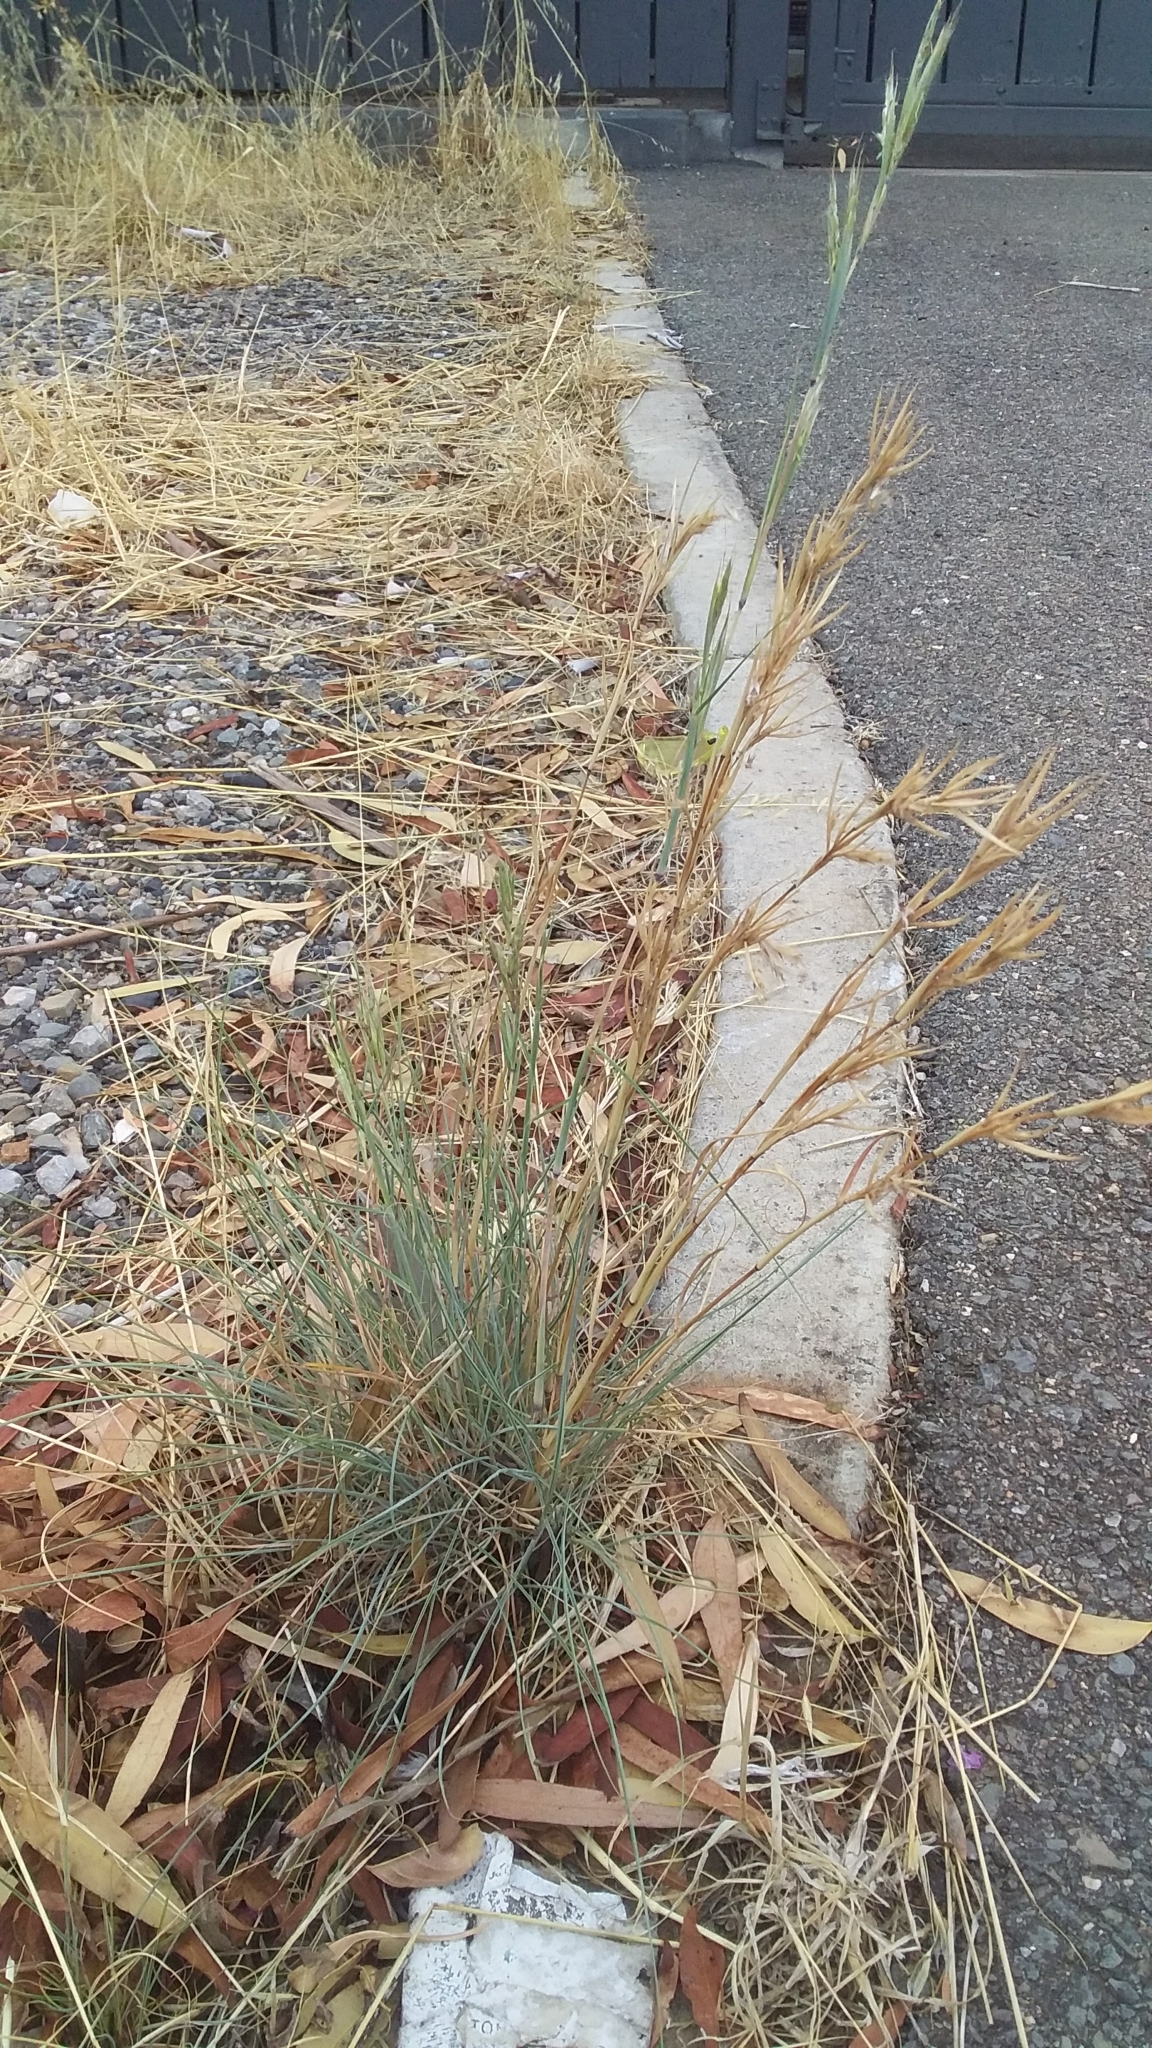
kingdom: Plantae
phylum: Tracheophyta
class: Liliopsida
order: Poales
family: Poaceae
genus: Cymbopogon
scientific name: Cymbopogon ambiguus
